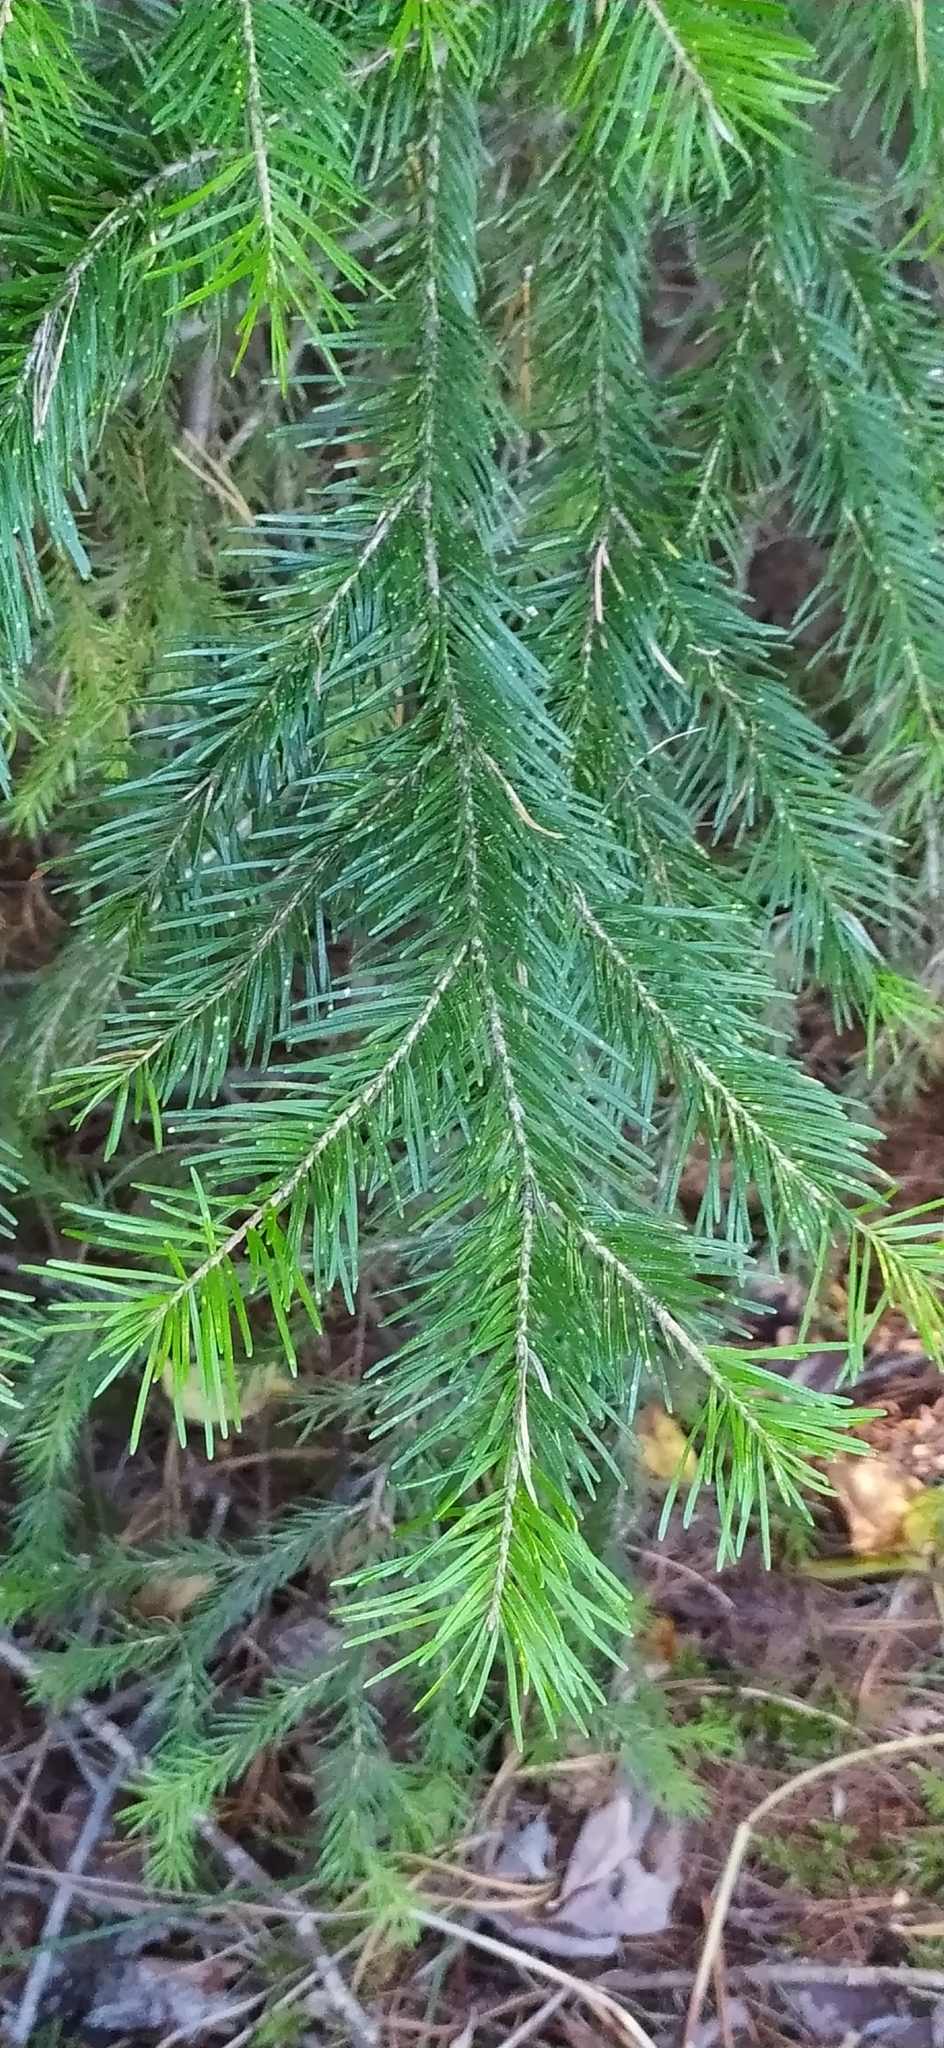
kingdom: Plantae
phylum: Tracheophyta
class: Pinopsida
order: Pinales
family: Pinaceae
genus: Abies
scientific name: Abies sibirica
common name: Siberian fir
